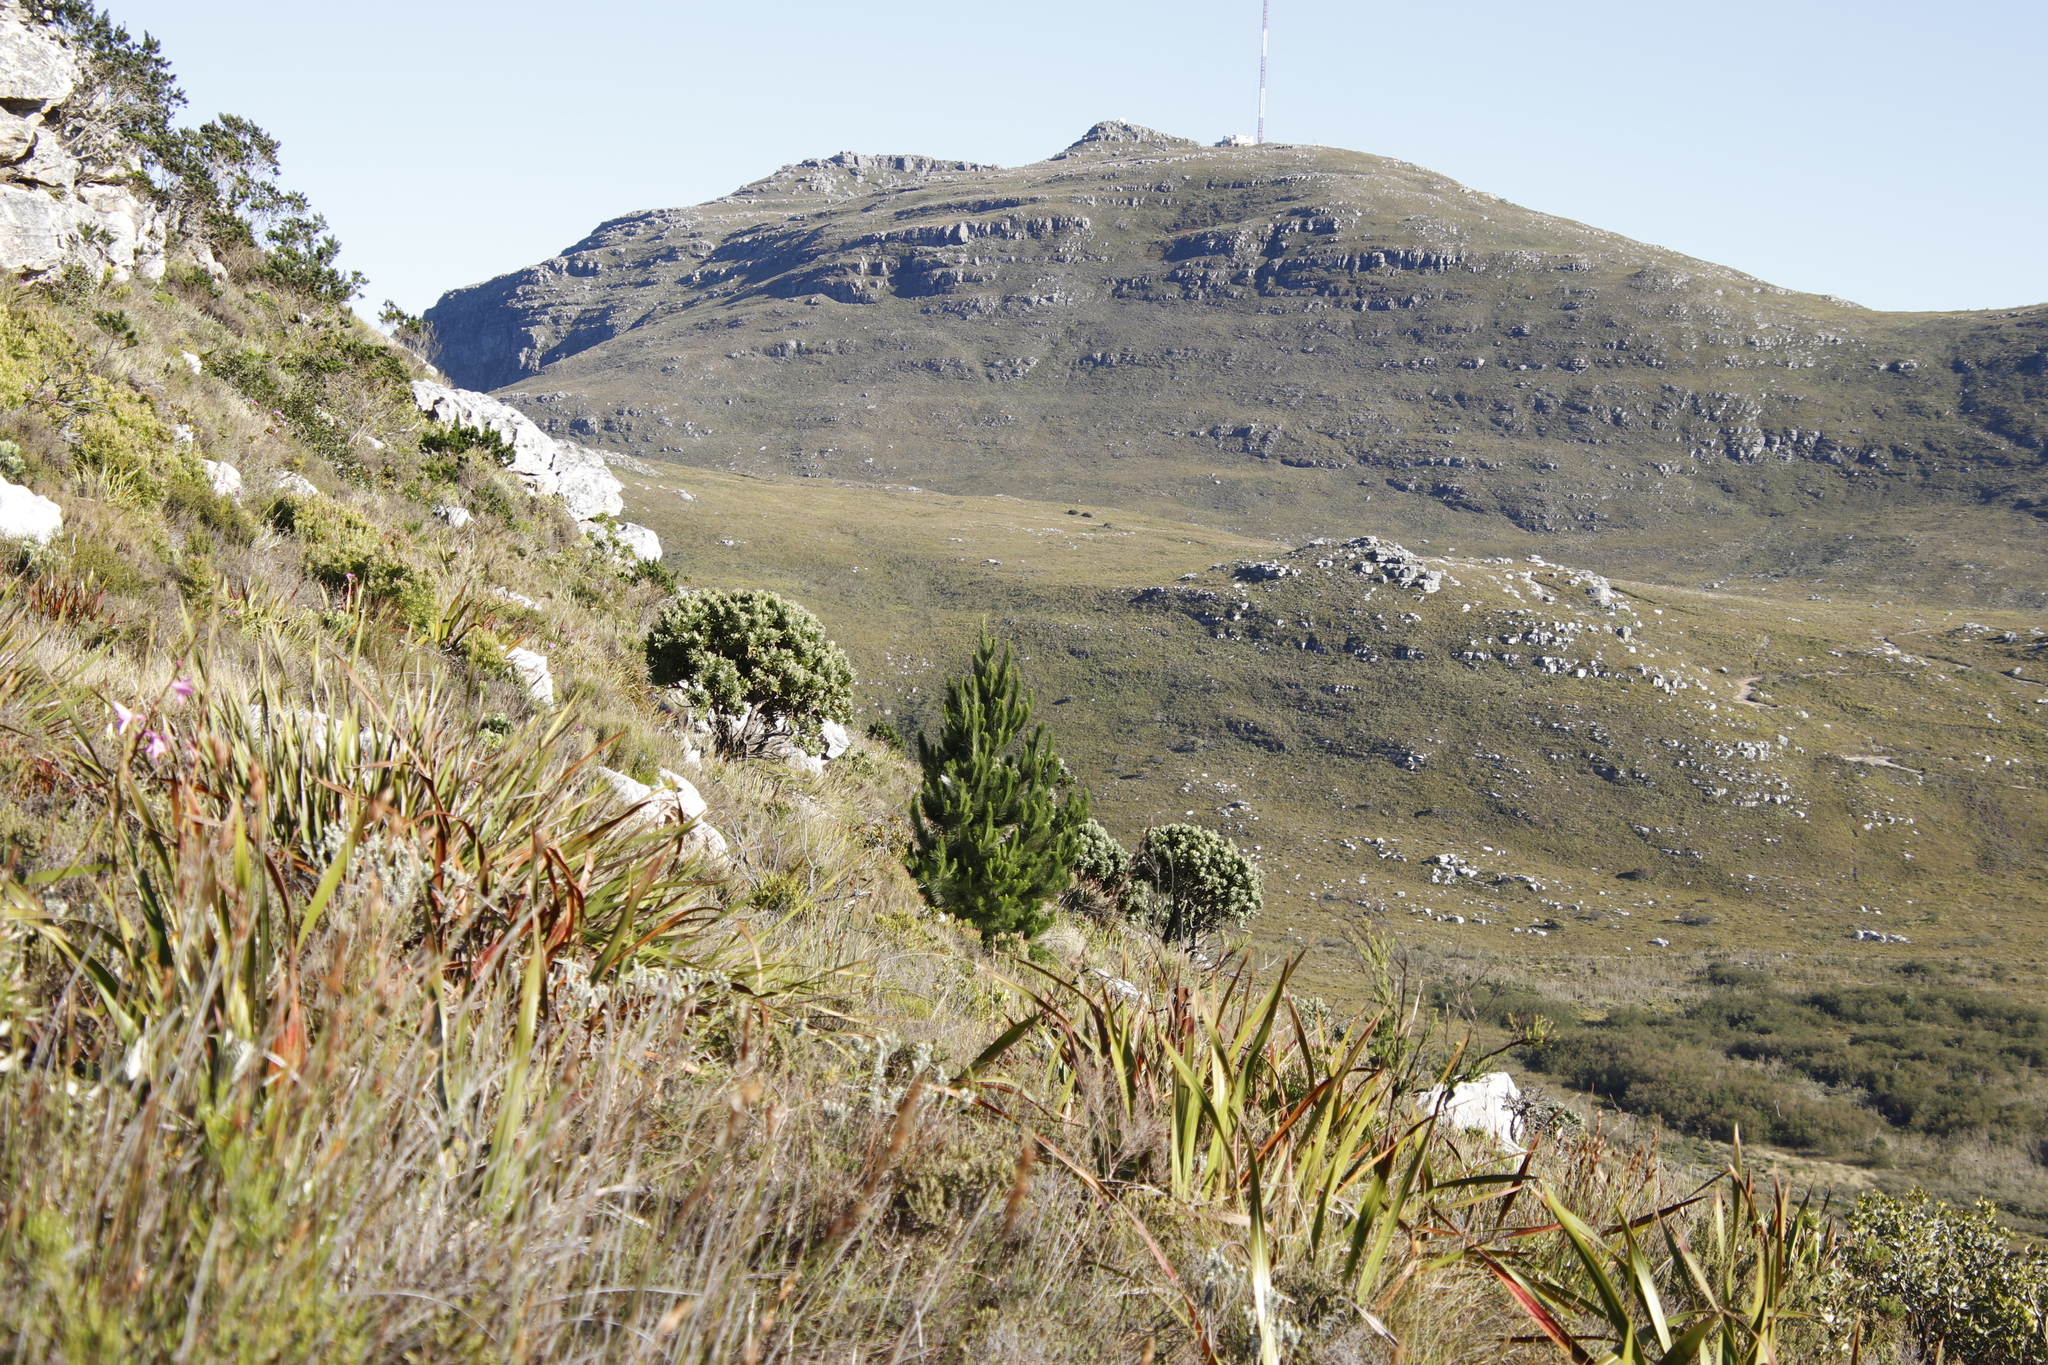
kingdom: Plantae
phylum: Tracheophyta
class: Pinopsida
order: Pinales
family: Pinaceae
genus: Pinus
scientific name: Pinus radiata
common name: Monterey pine
